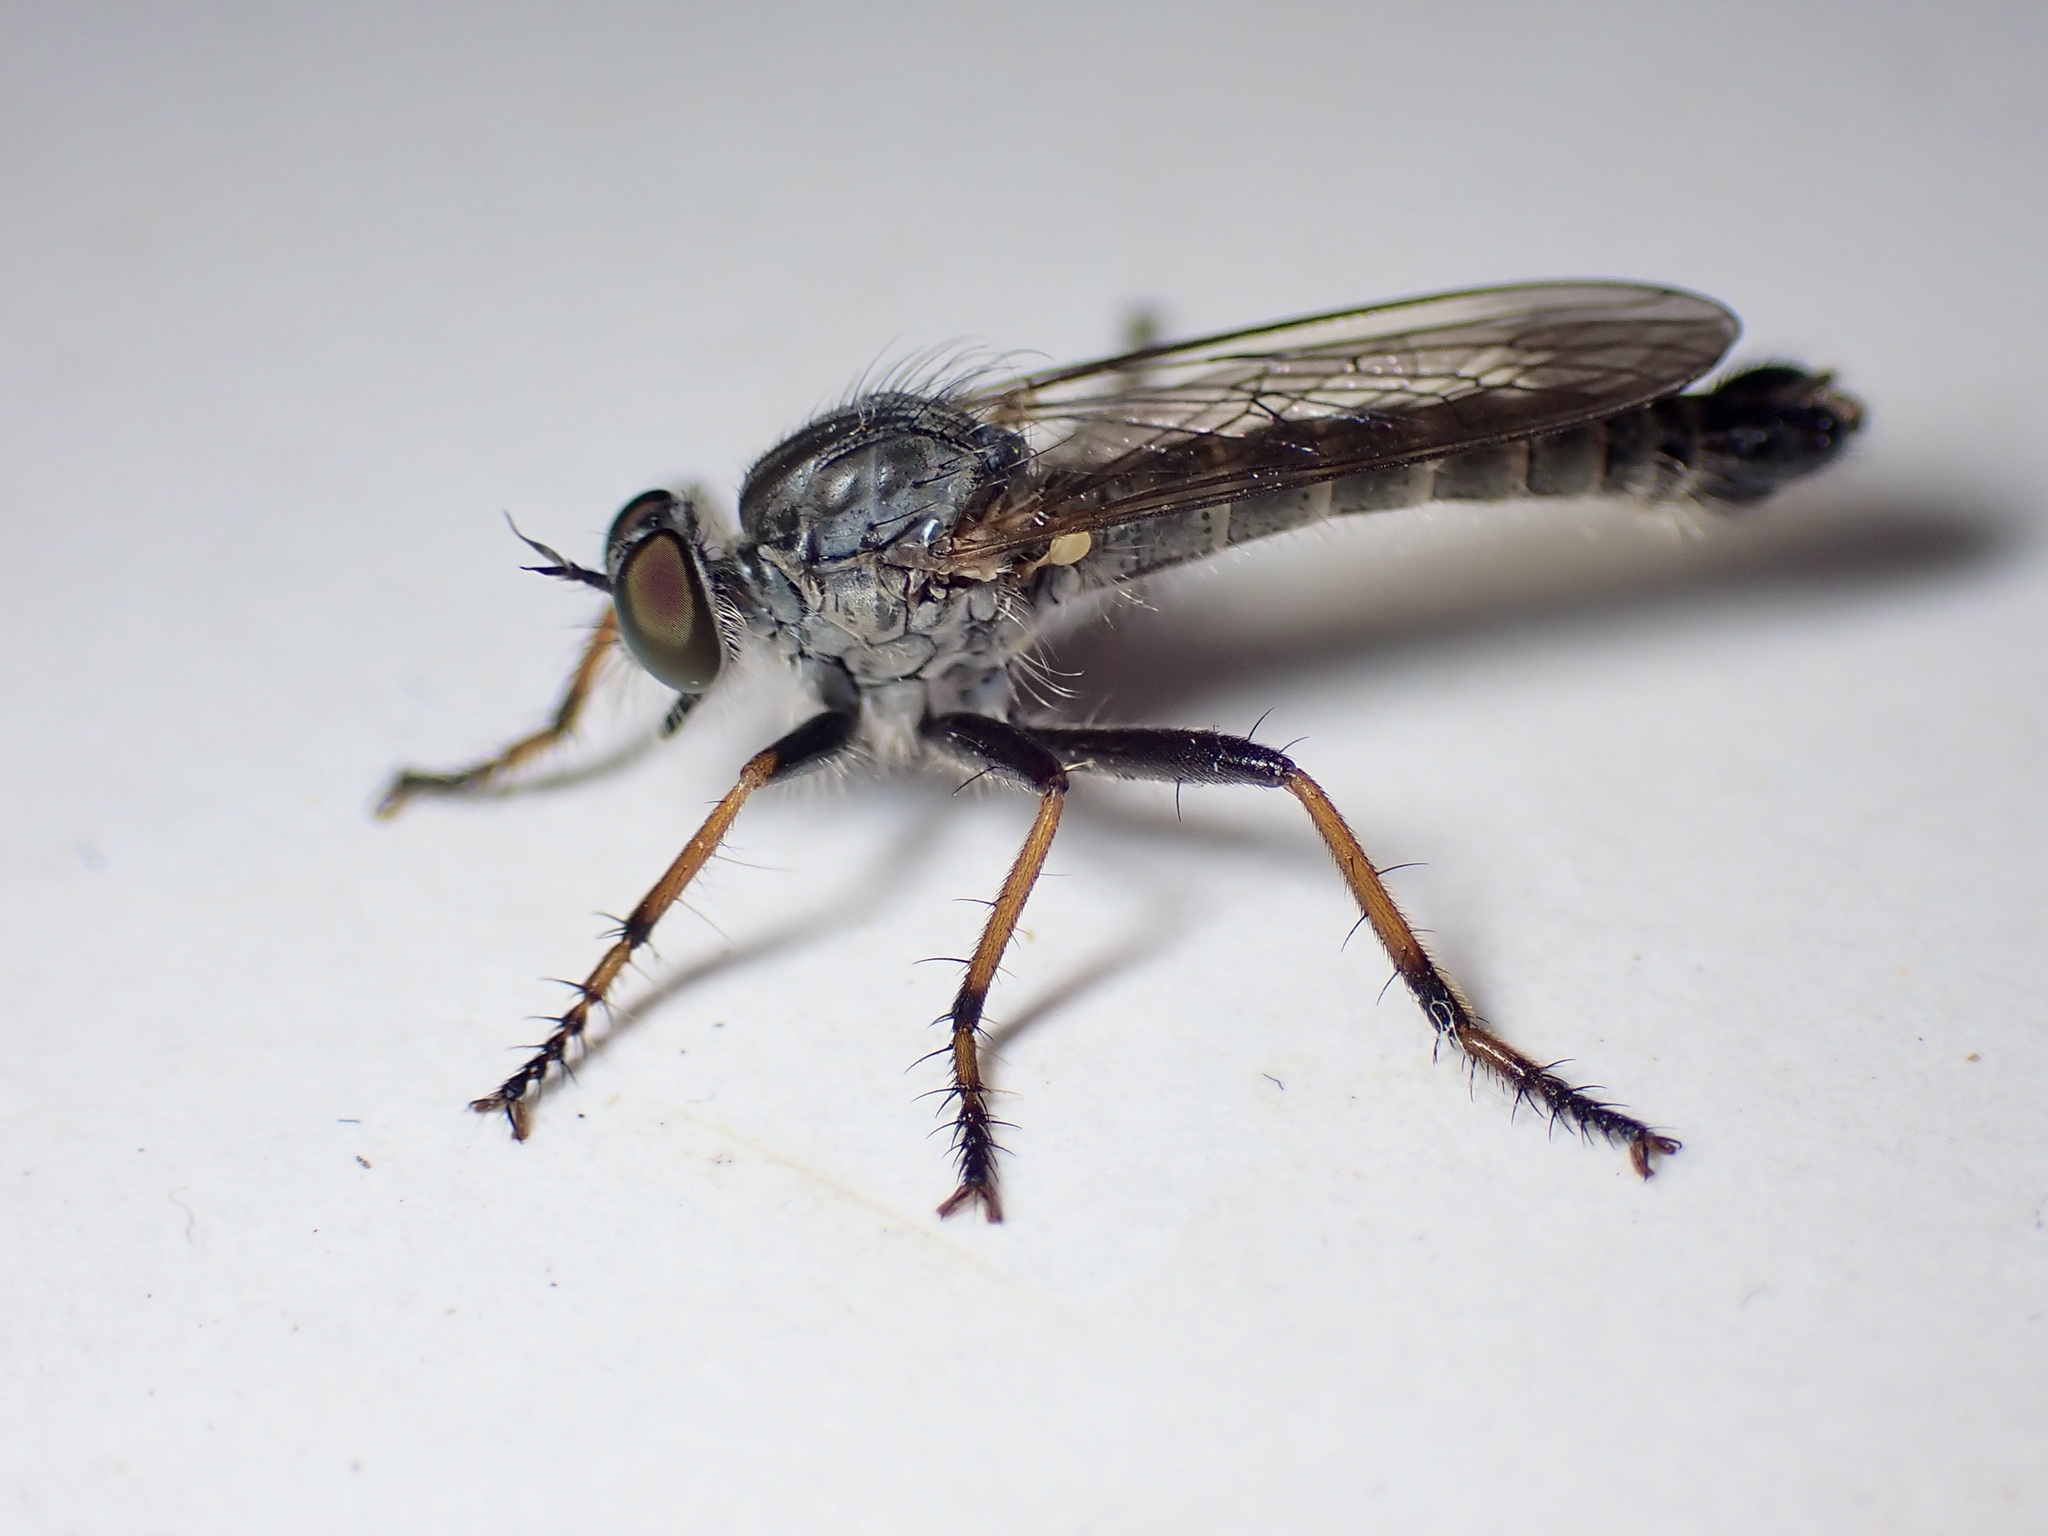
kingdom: Animalia
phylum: Arthropoda
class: Insecta
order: Diptera
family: Asilidae
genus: Paritamus
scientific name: Paritamus geniculatus
